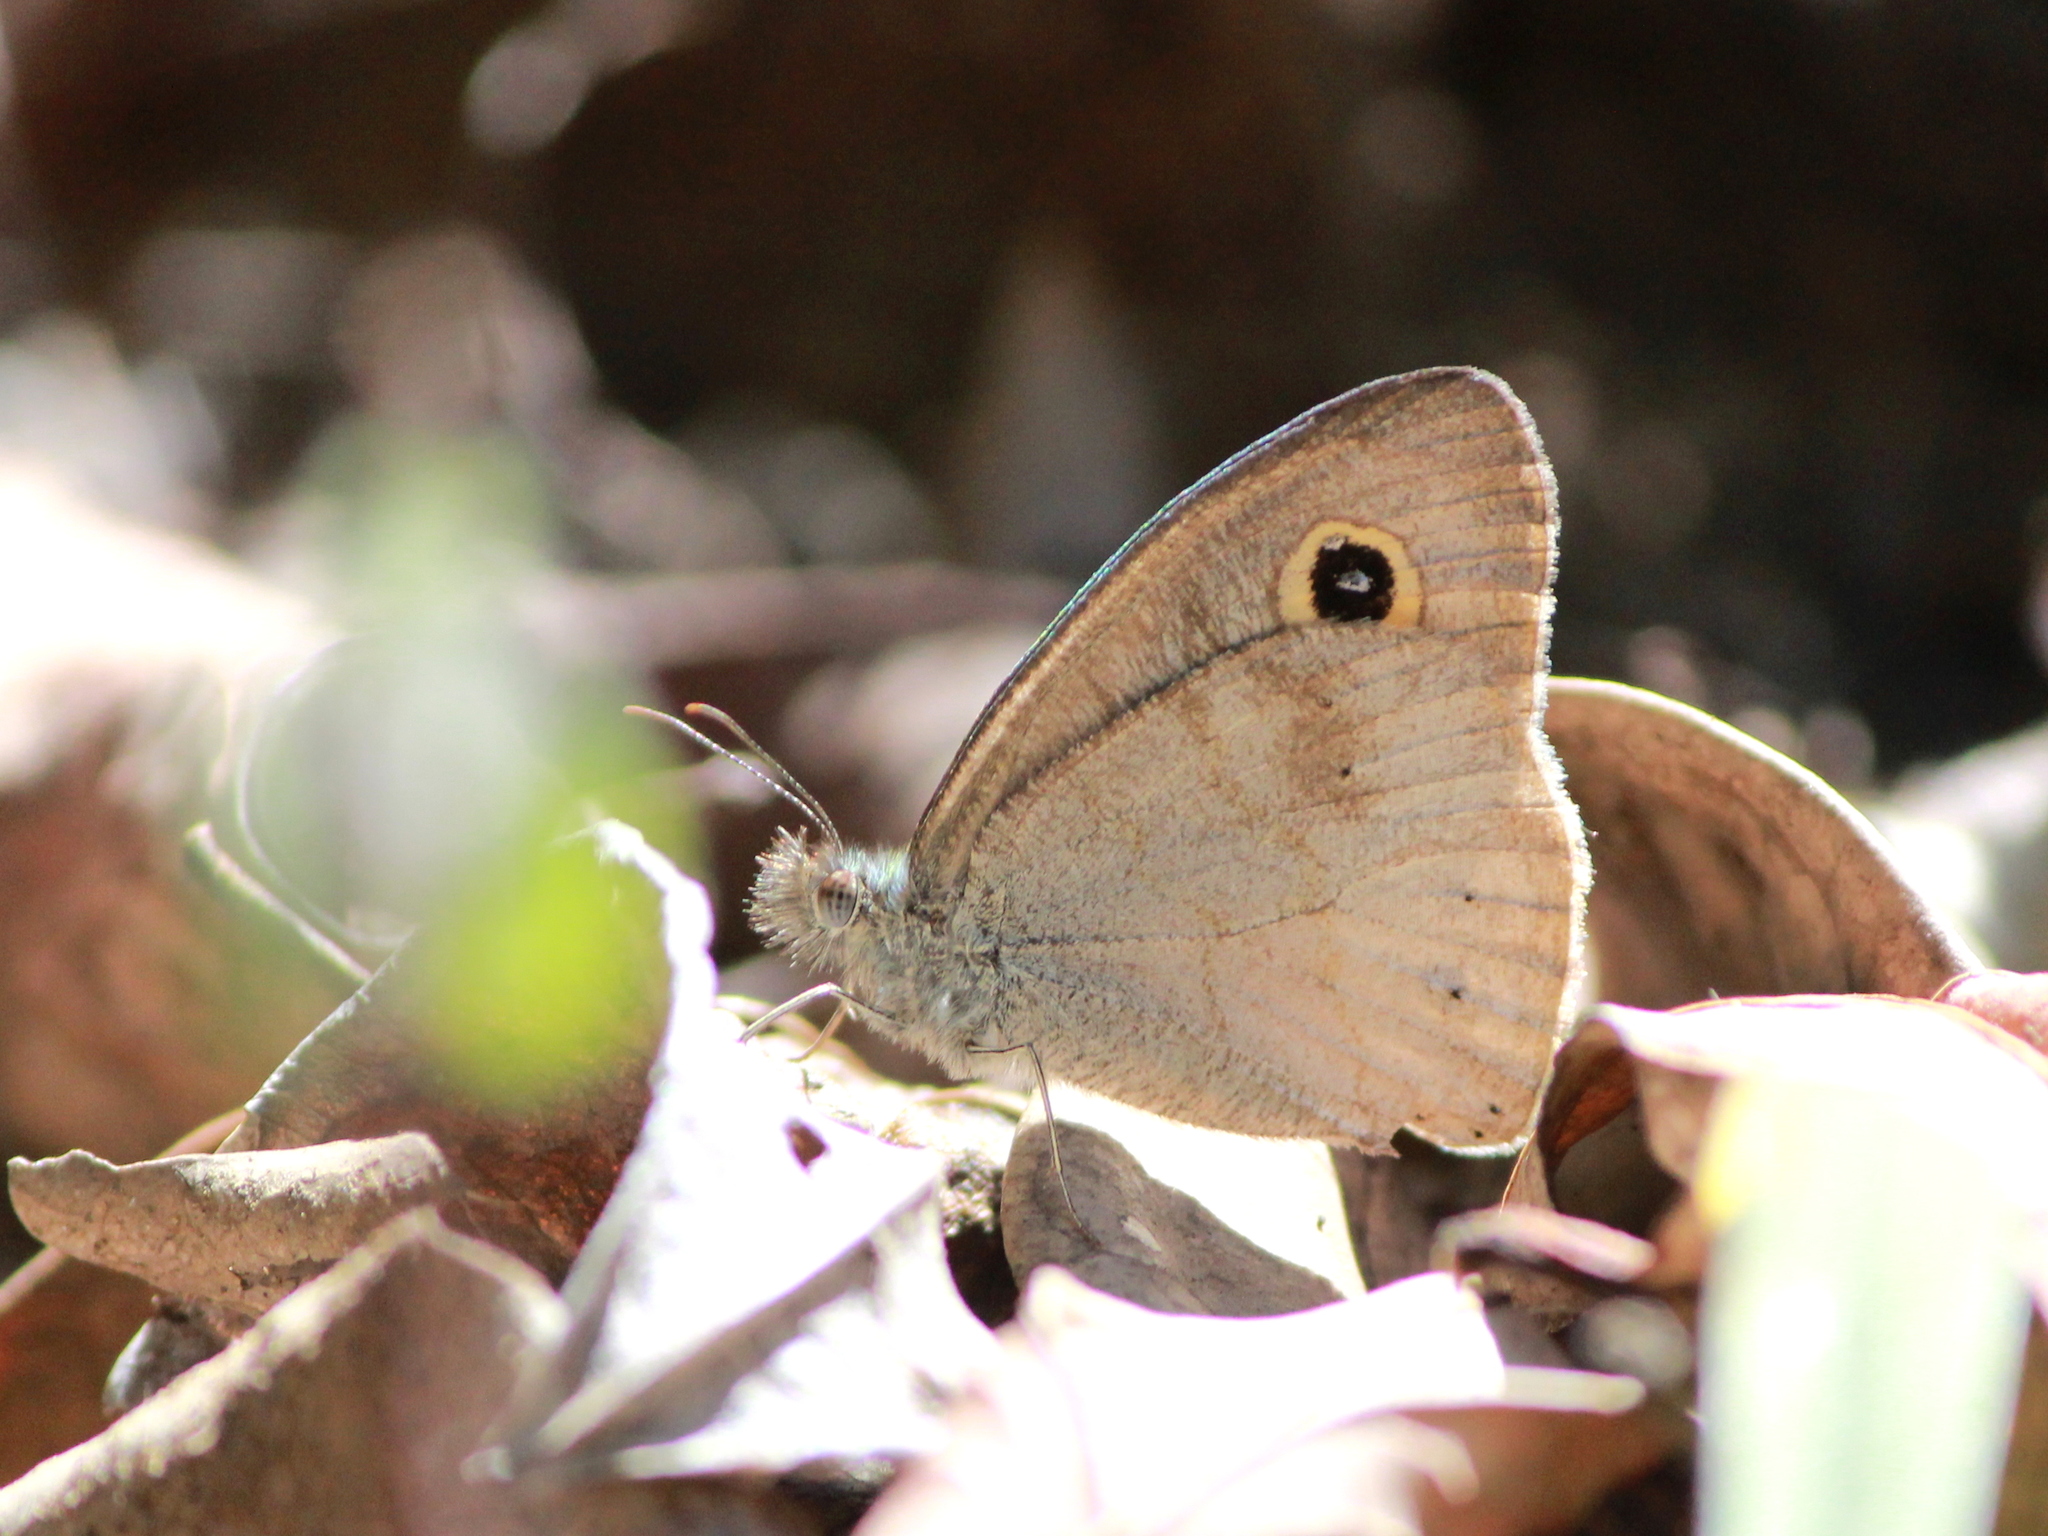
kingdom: Animalia
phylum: Arthropoda
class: Insecta
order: Lepidoptera
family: Nymphalidae
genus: Ypthima
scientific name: Ypthima baldus
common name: Common five-ring
